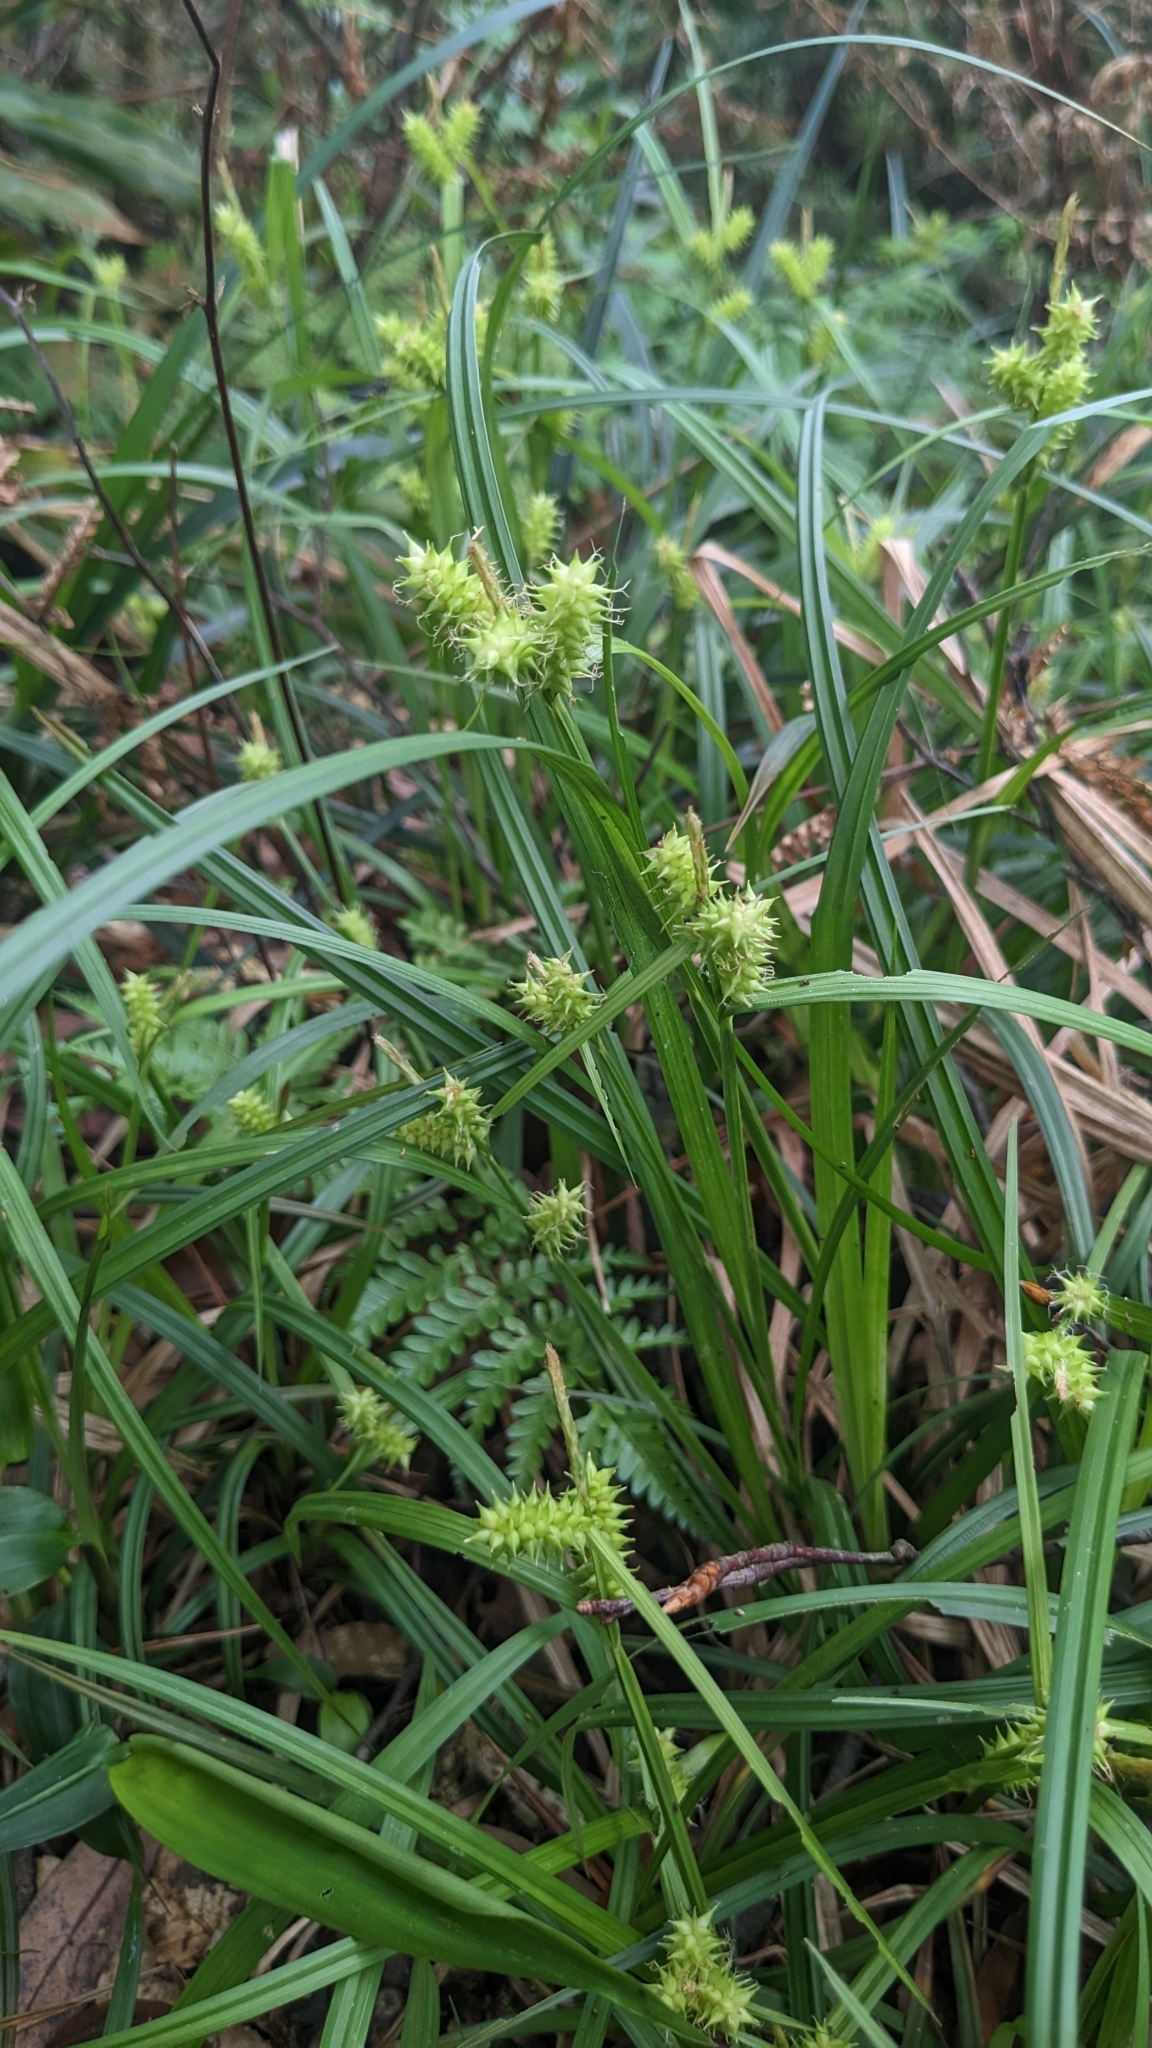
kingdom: Plantae
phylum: Tracheophyta
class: Liliopsida
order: Poales
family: Cyperaceae
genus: Carex
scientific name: Carex mollicula
